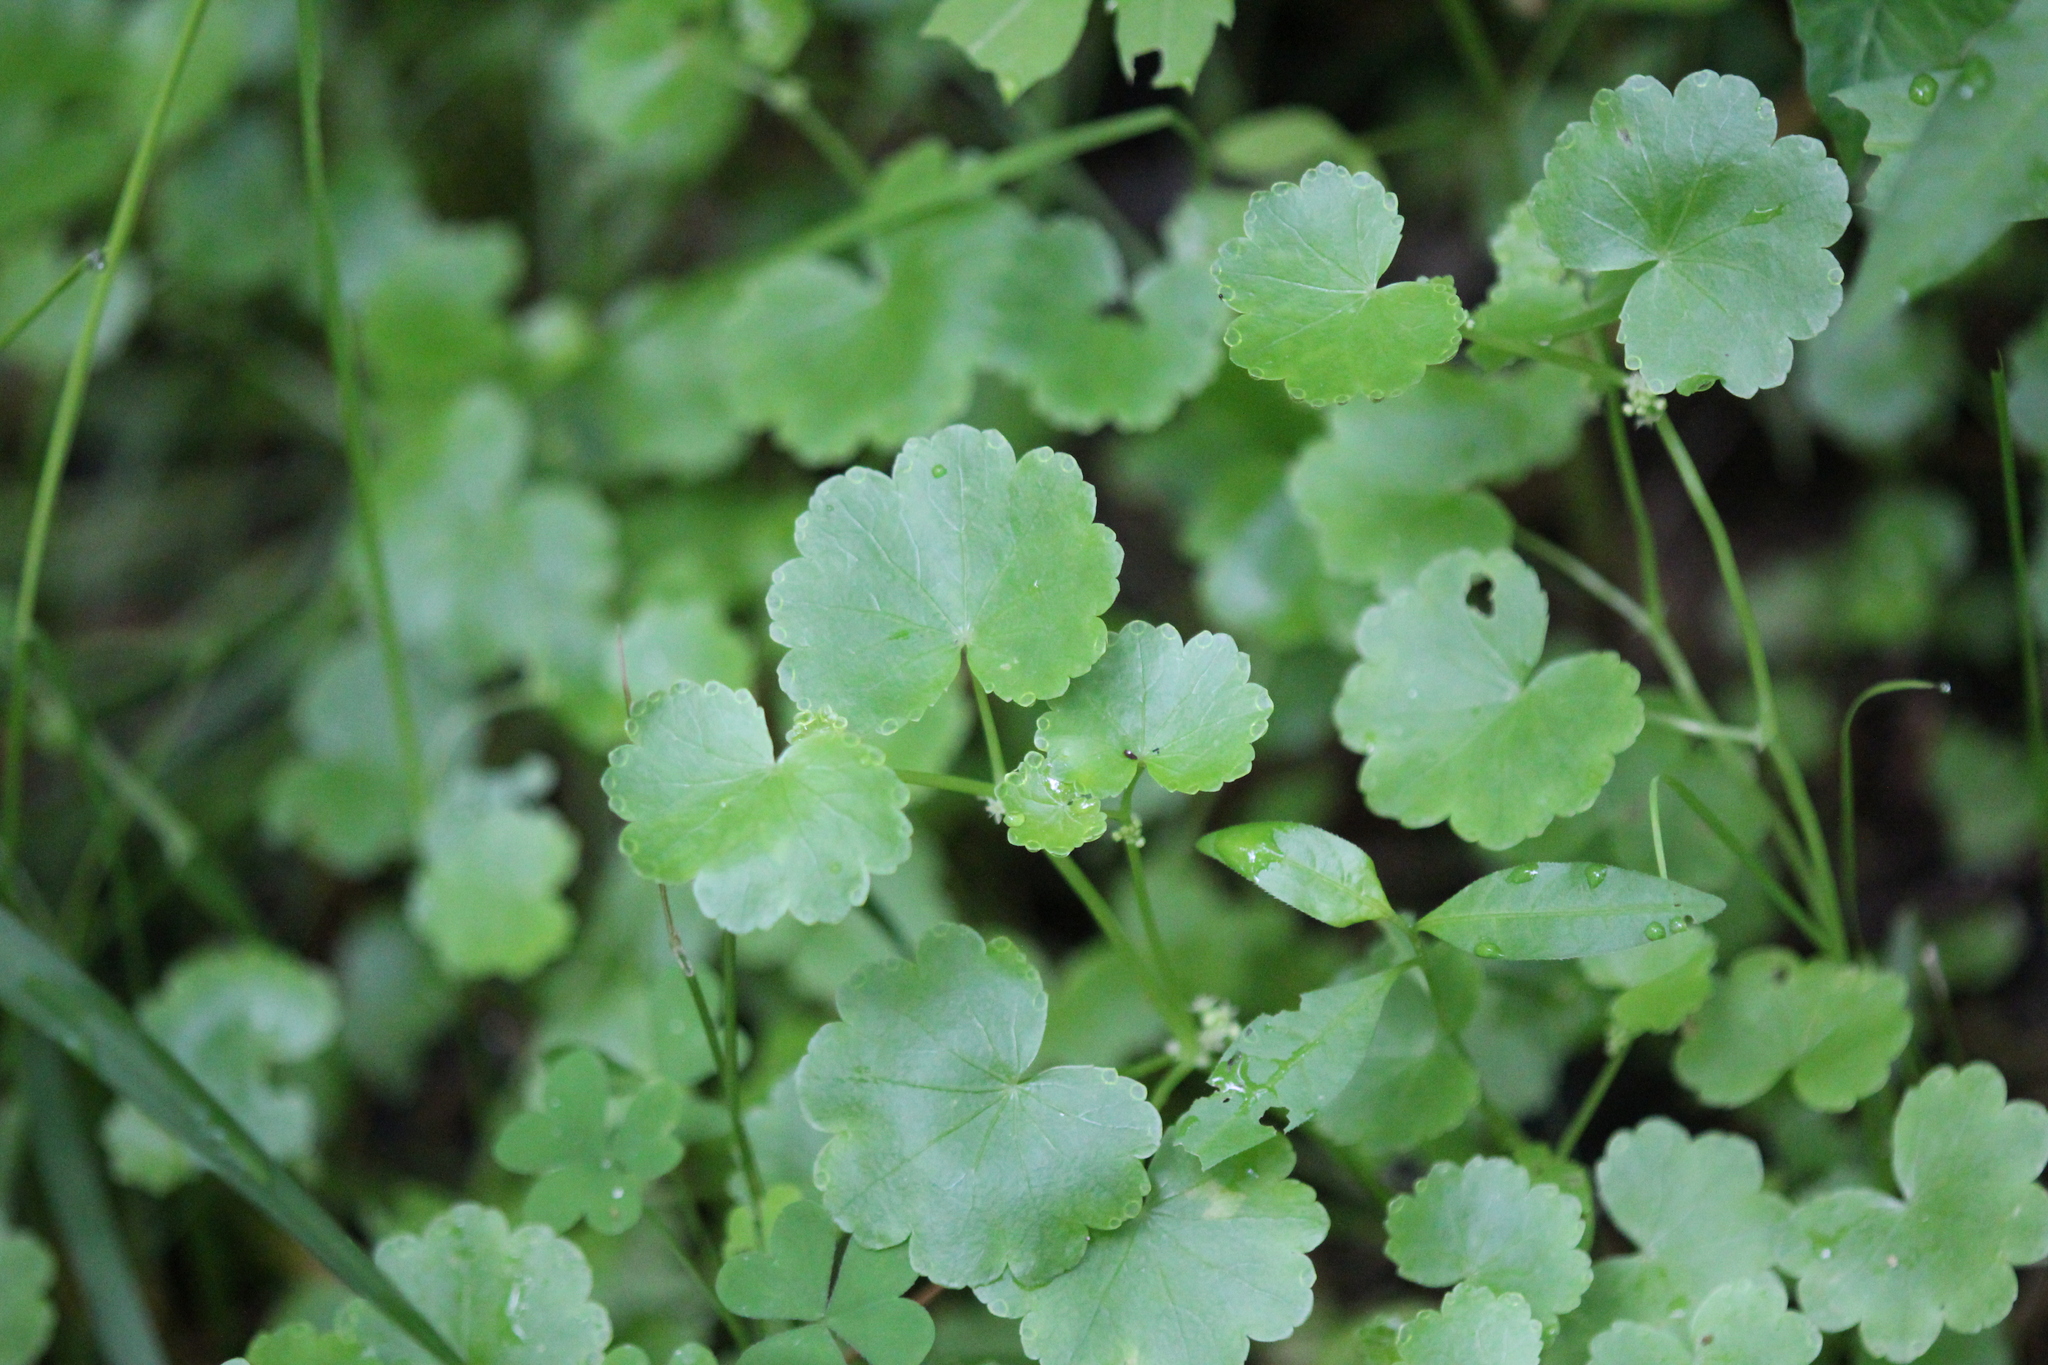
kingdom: Plantae
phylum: Tracheophyta
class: Magnoliopsida
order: Apiales
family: Araliaceae
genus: Hydrocotyle
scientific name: Hydrocotyle americana
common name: American water-pennywort
